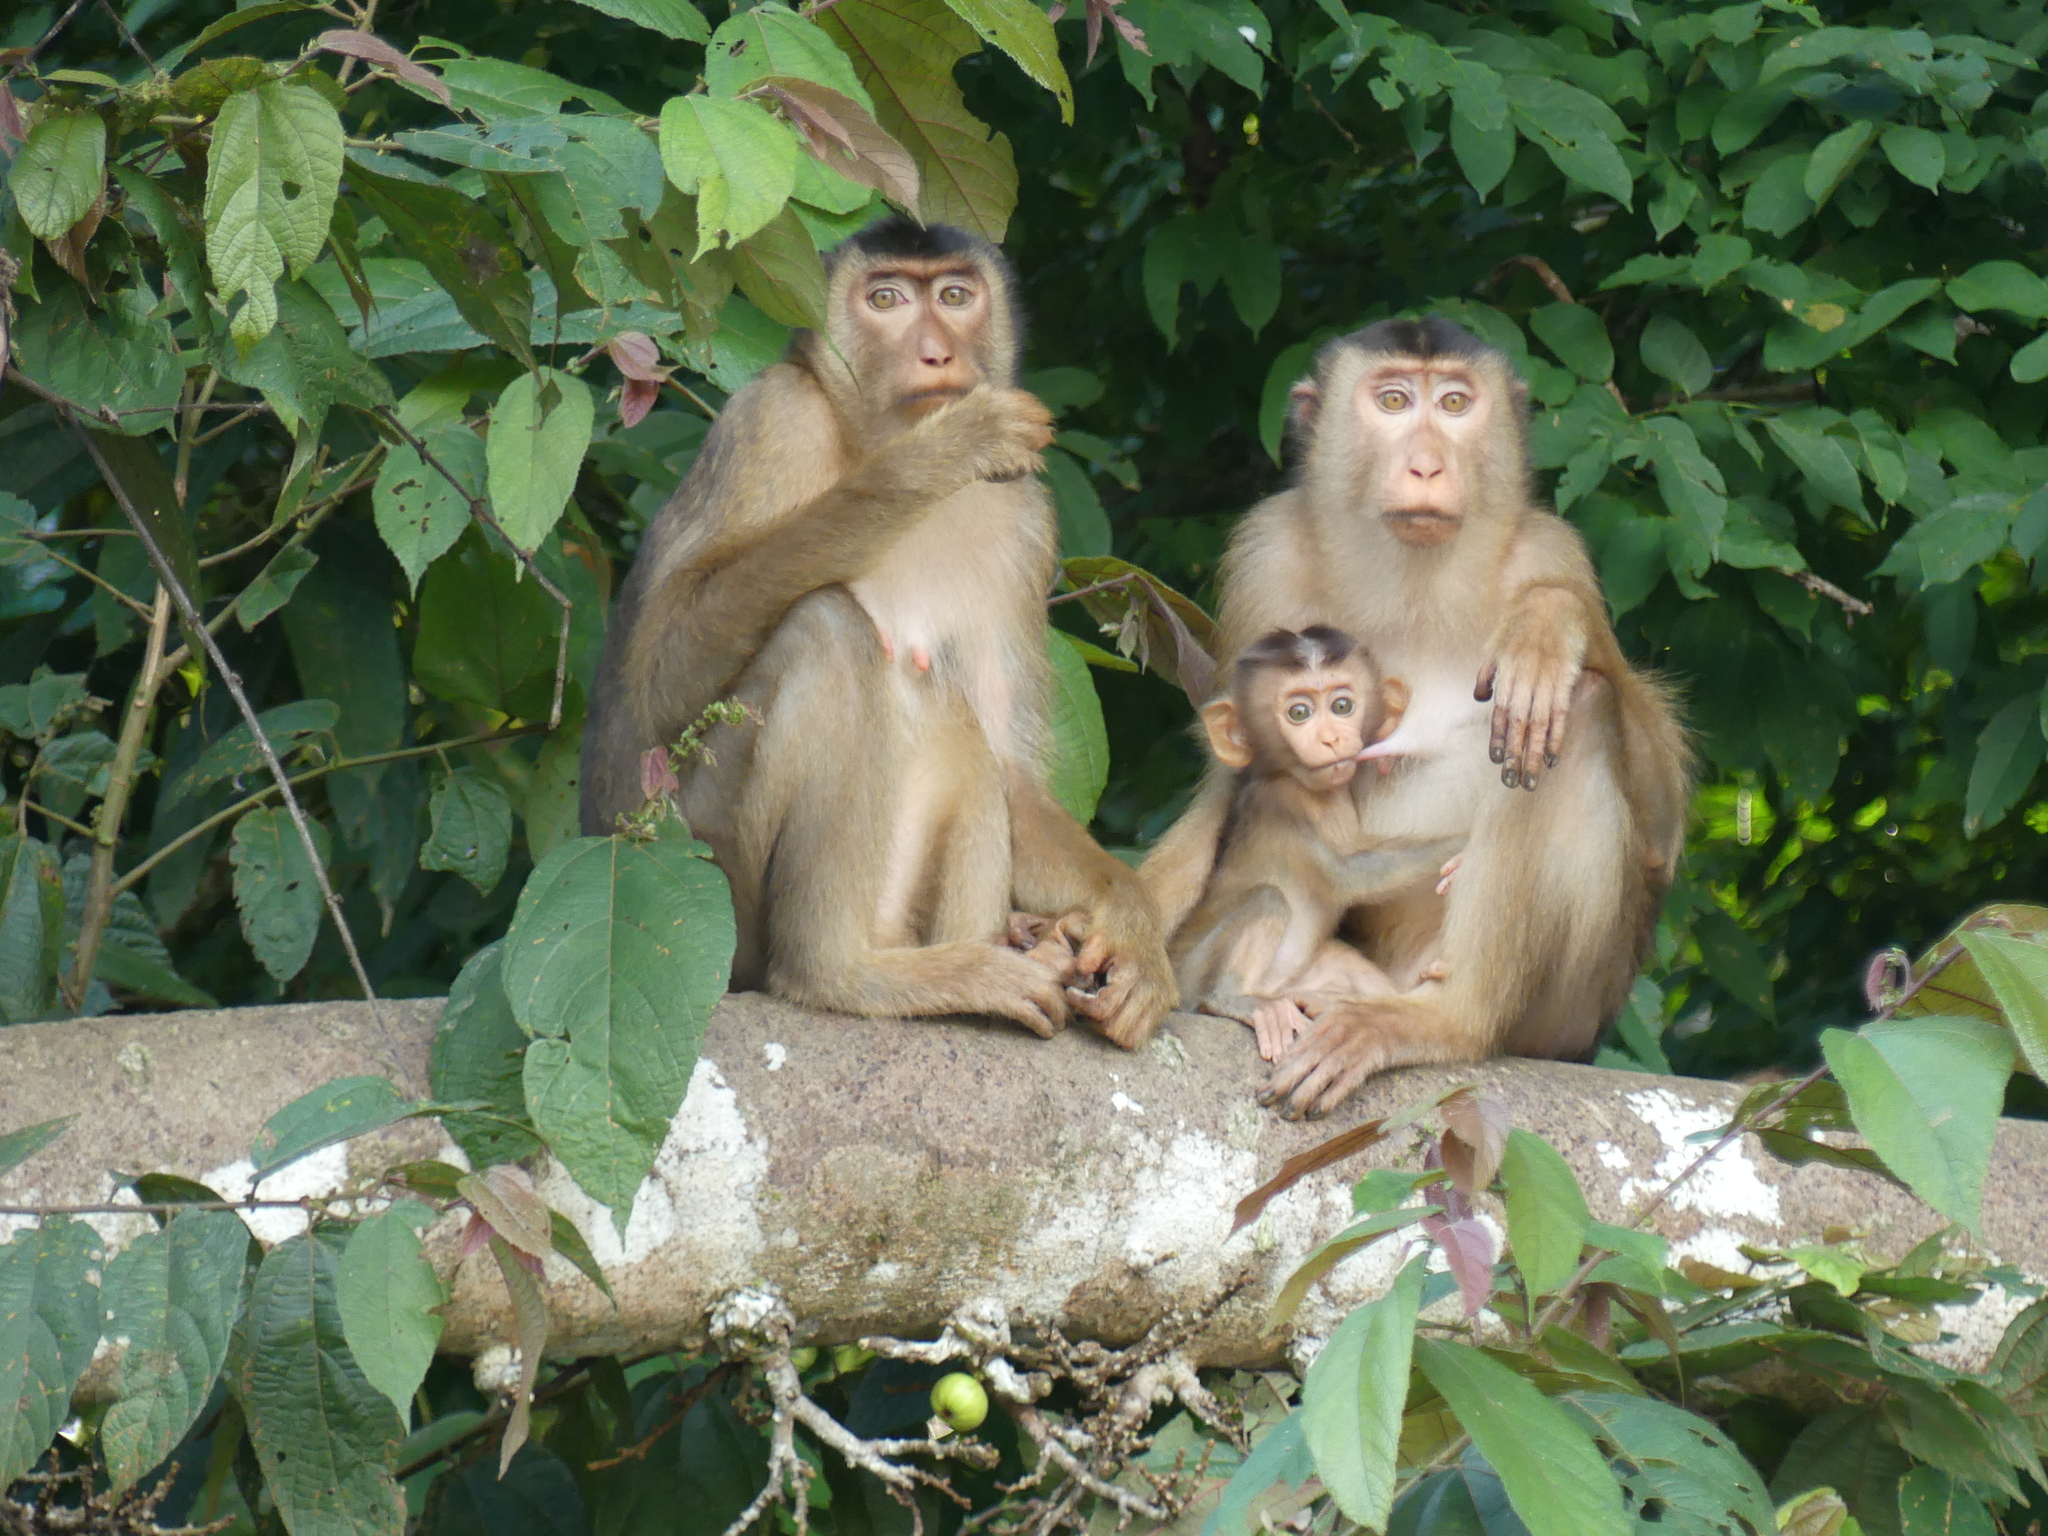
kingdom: Animalia
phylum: Chordata
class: Mammalia
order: Primates
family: Cercopithecidae
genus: Macaca
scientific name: Macaca nemestrina
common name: Southern pig-tailed macaque
